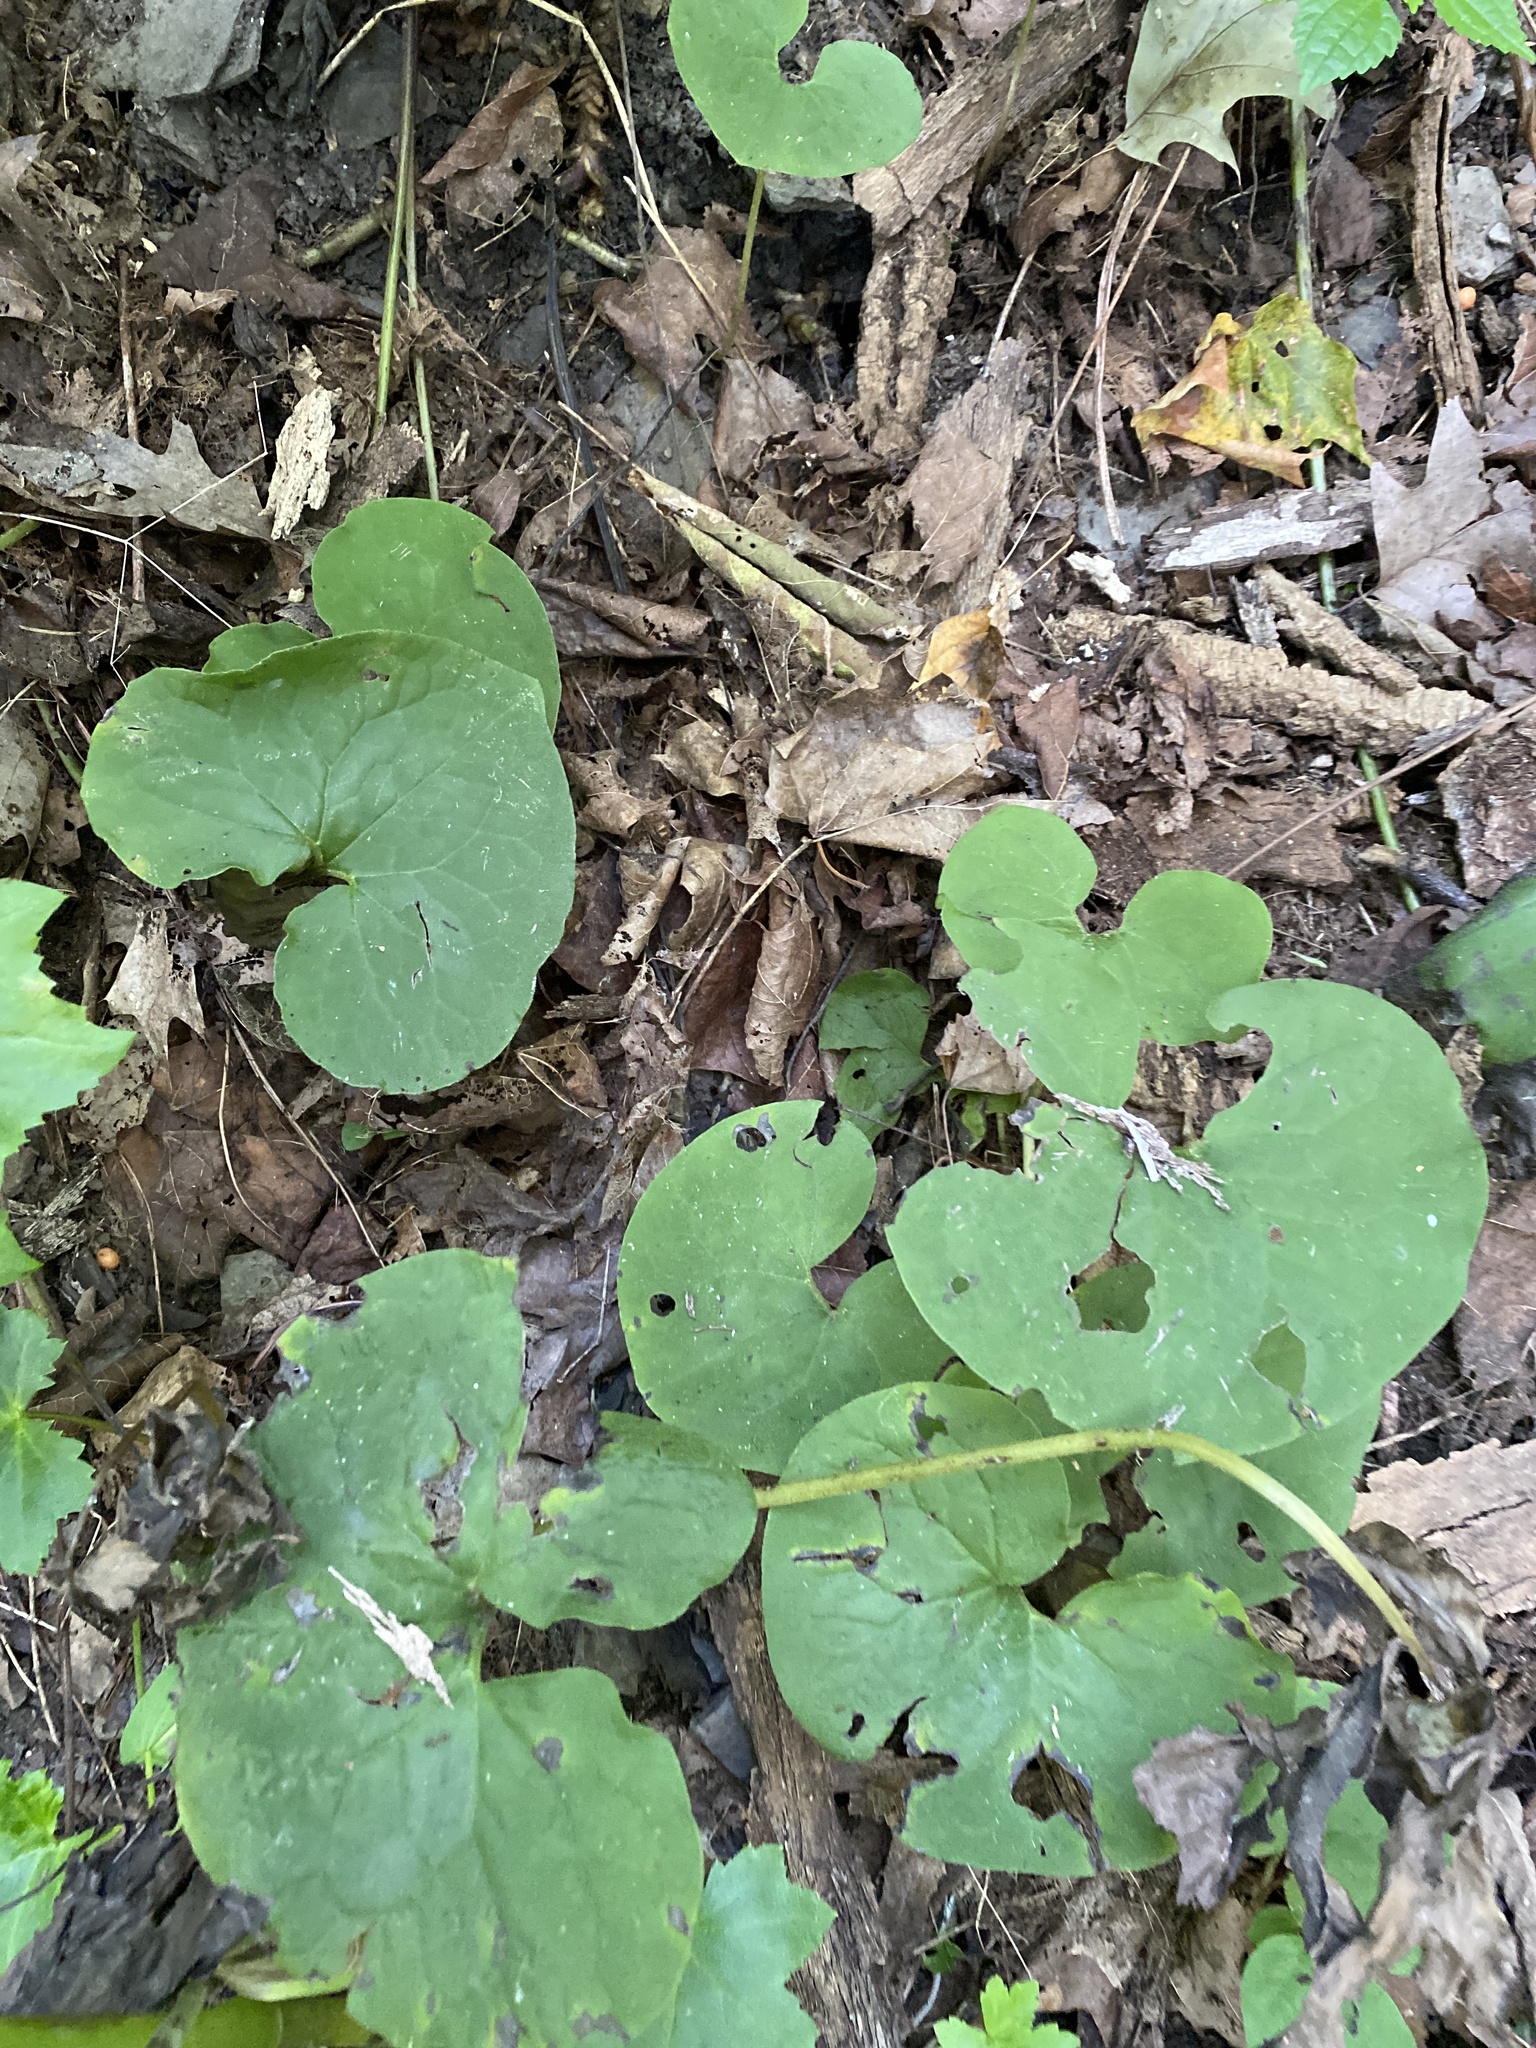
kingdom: Plantae
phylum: Tracheophyta
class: Magnoliopsida
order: Piperales
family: Aristolochiaceae
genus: Asarum
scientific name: Asarum canadense
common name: Wild ginger
